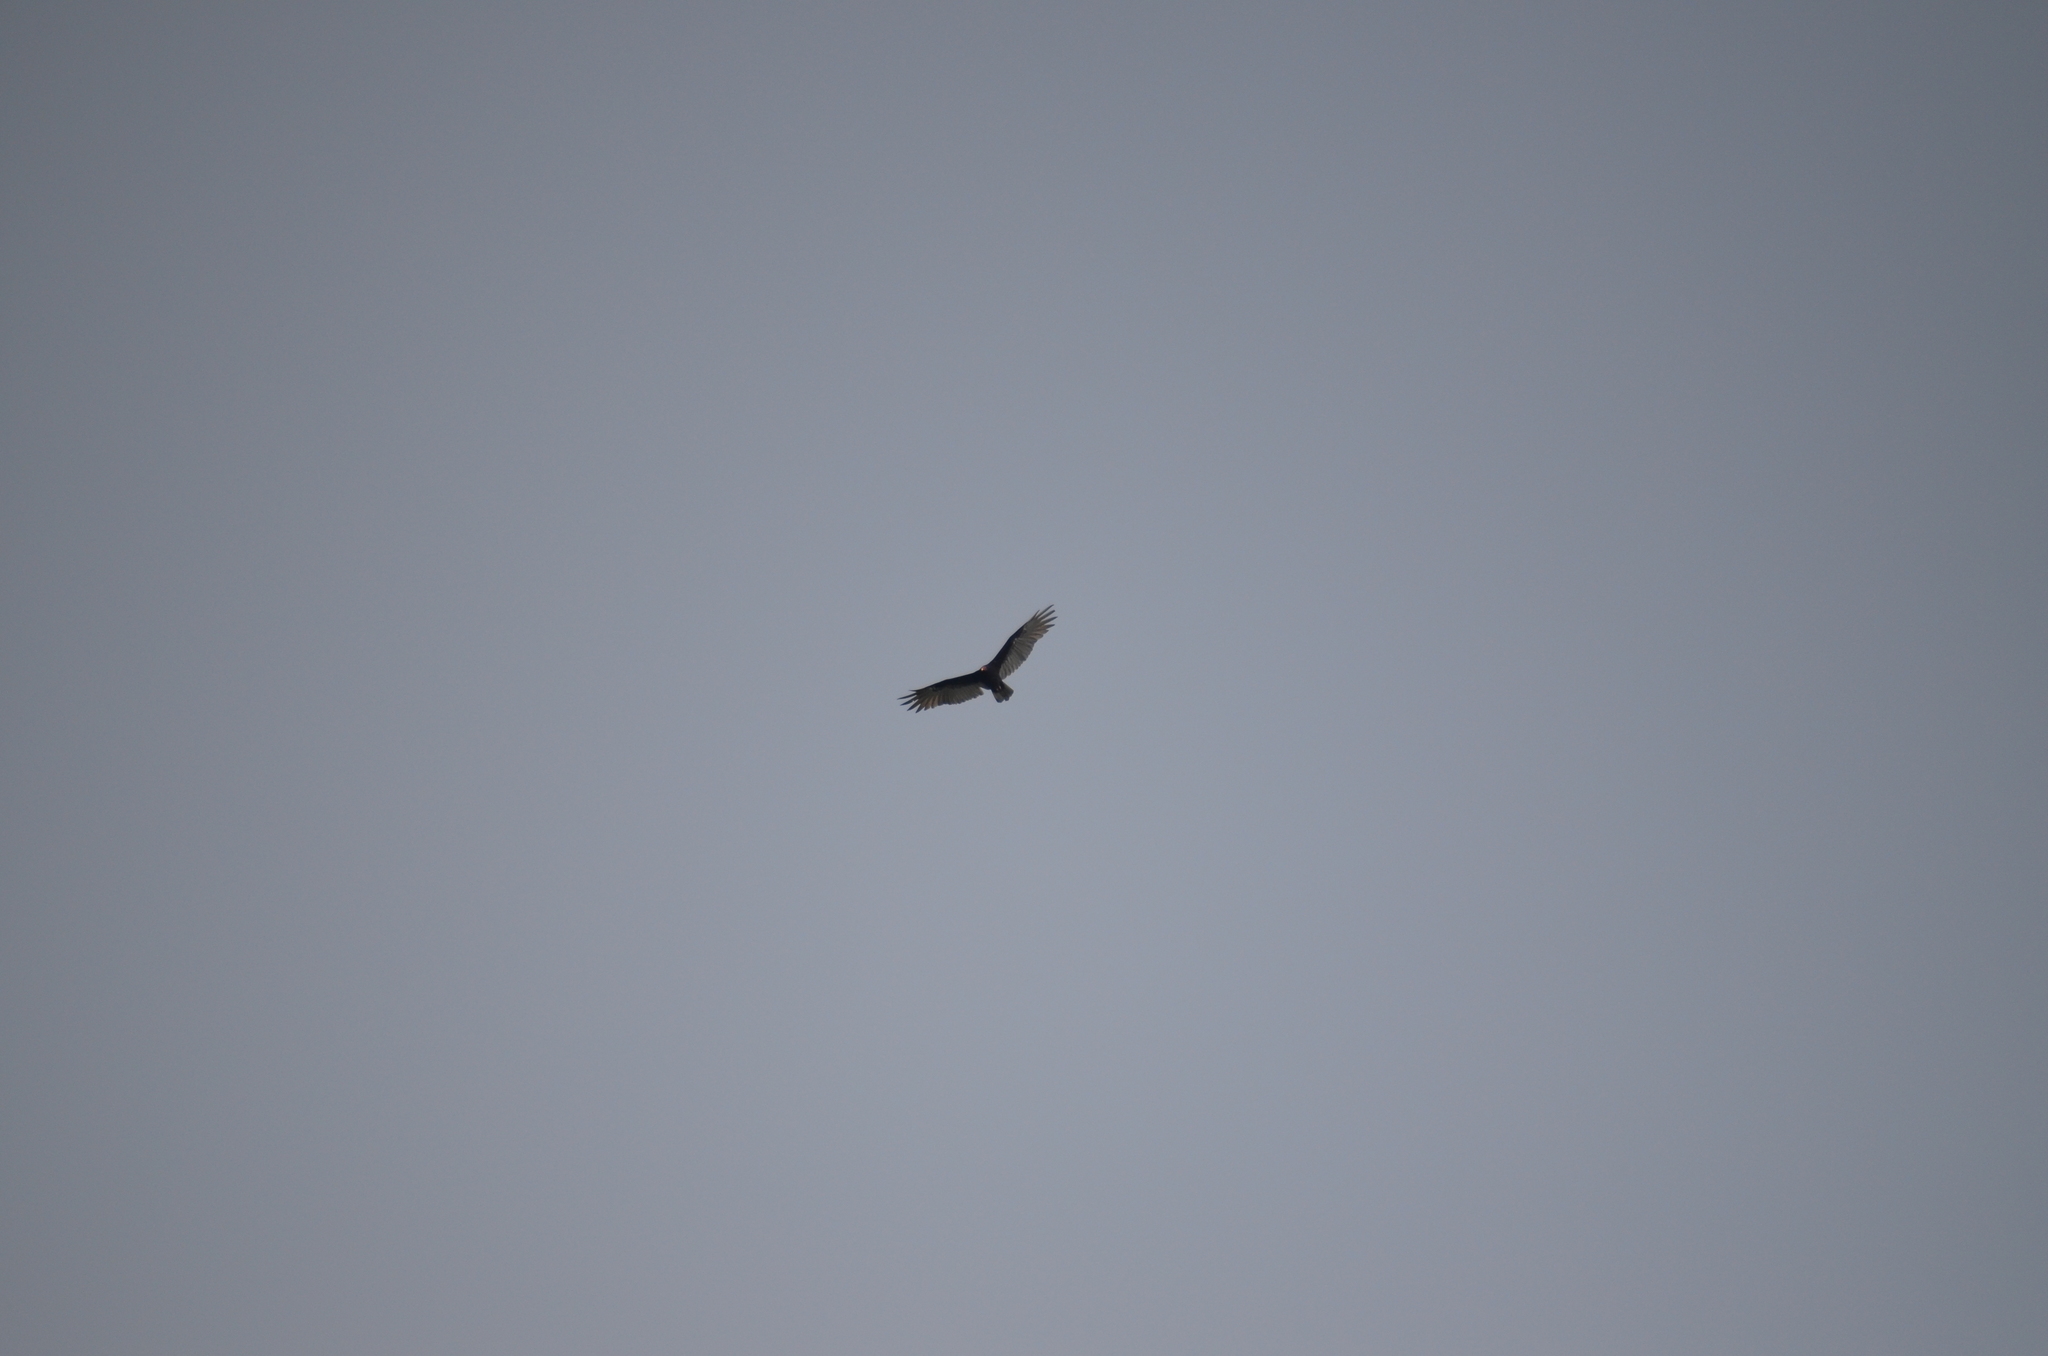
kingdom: Animalia
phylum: Chordata
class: Aves
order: Accipitriformes
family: Cathartidae
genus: Cathartes
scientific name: Cathartes aura
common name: Turkey vulture
